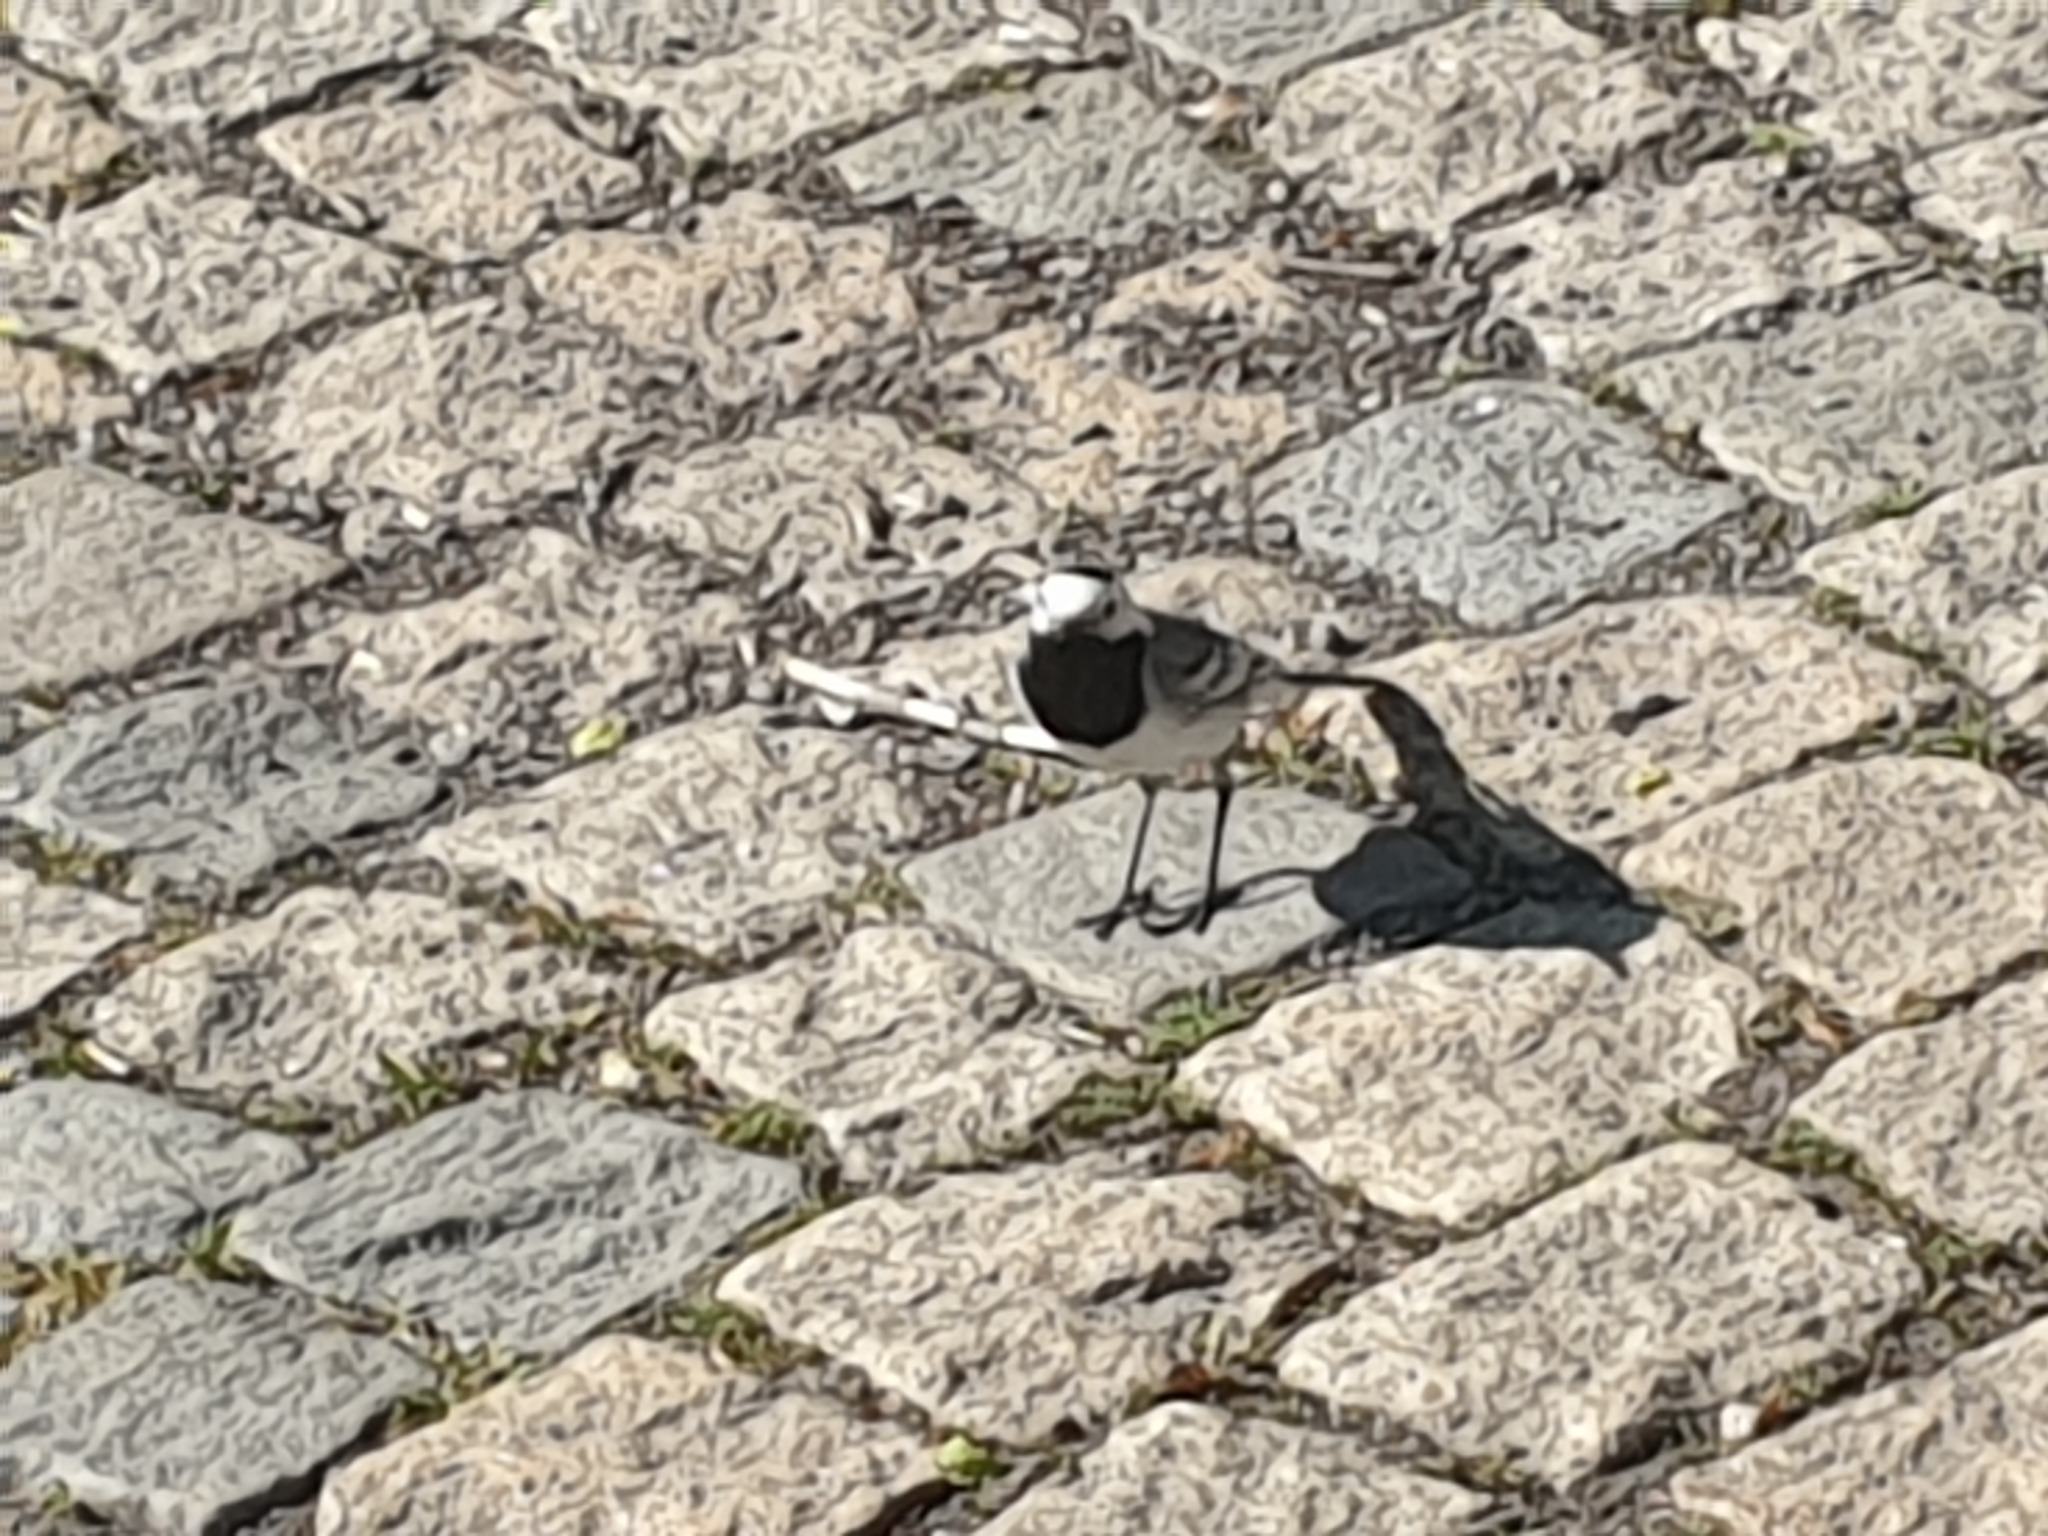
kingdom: Animalia
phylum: Chordata
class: Aves
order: Passeriformes
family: Motacillidae
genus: Motacilla
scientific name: Motacilla alba
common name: White wagtail
